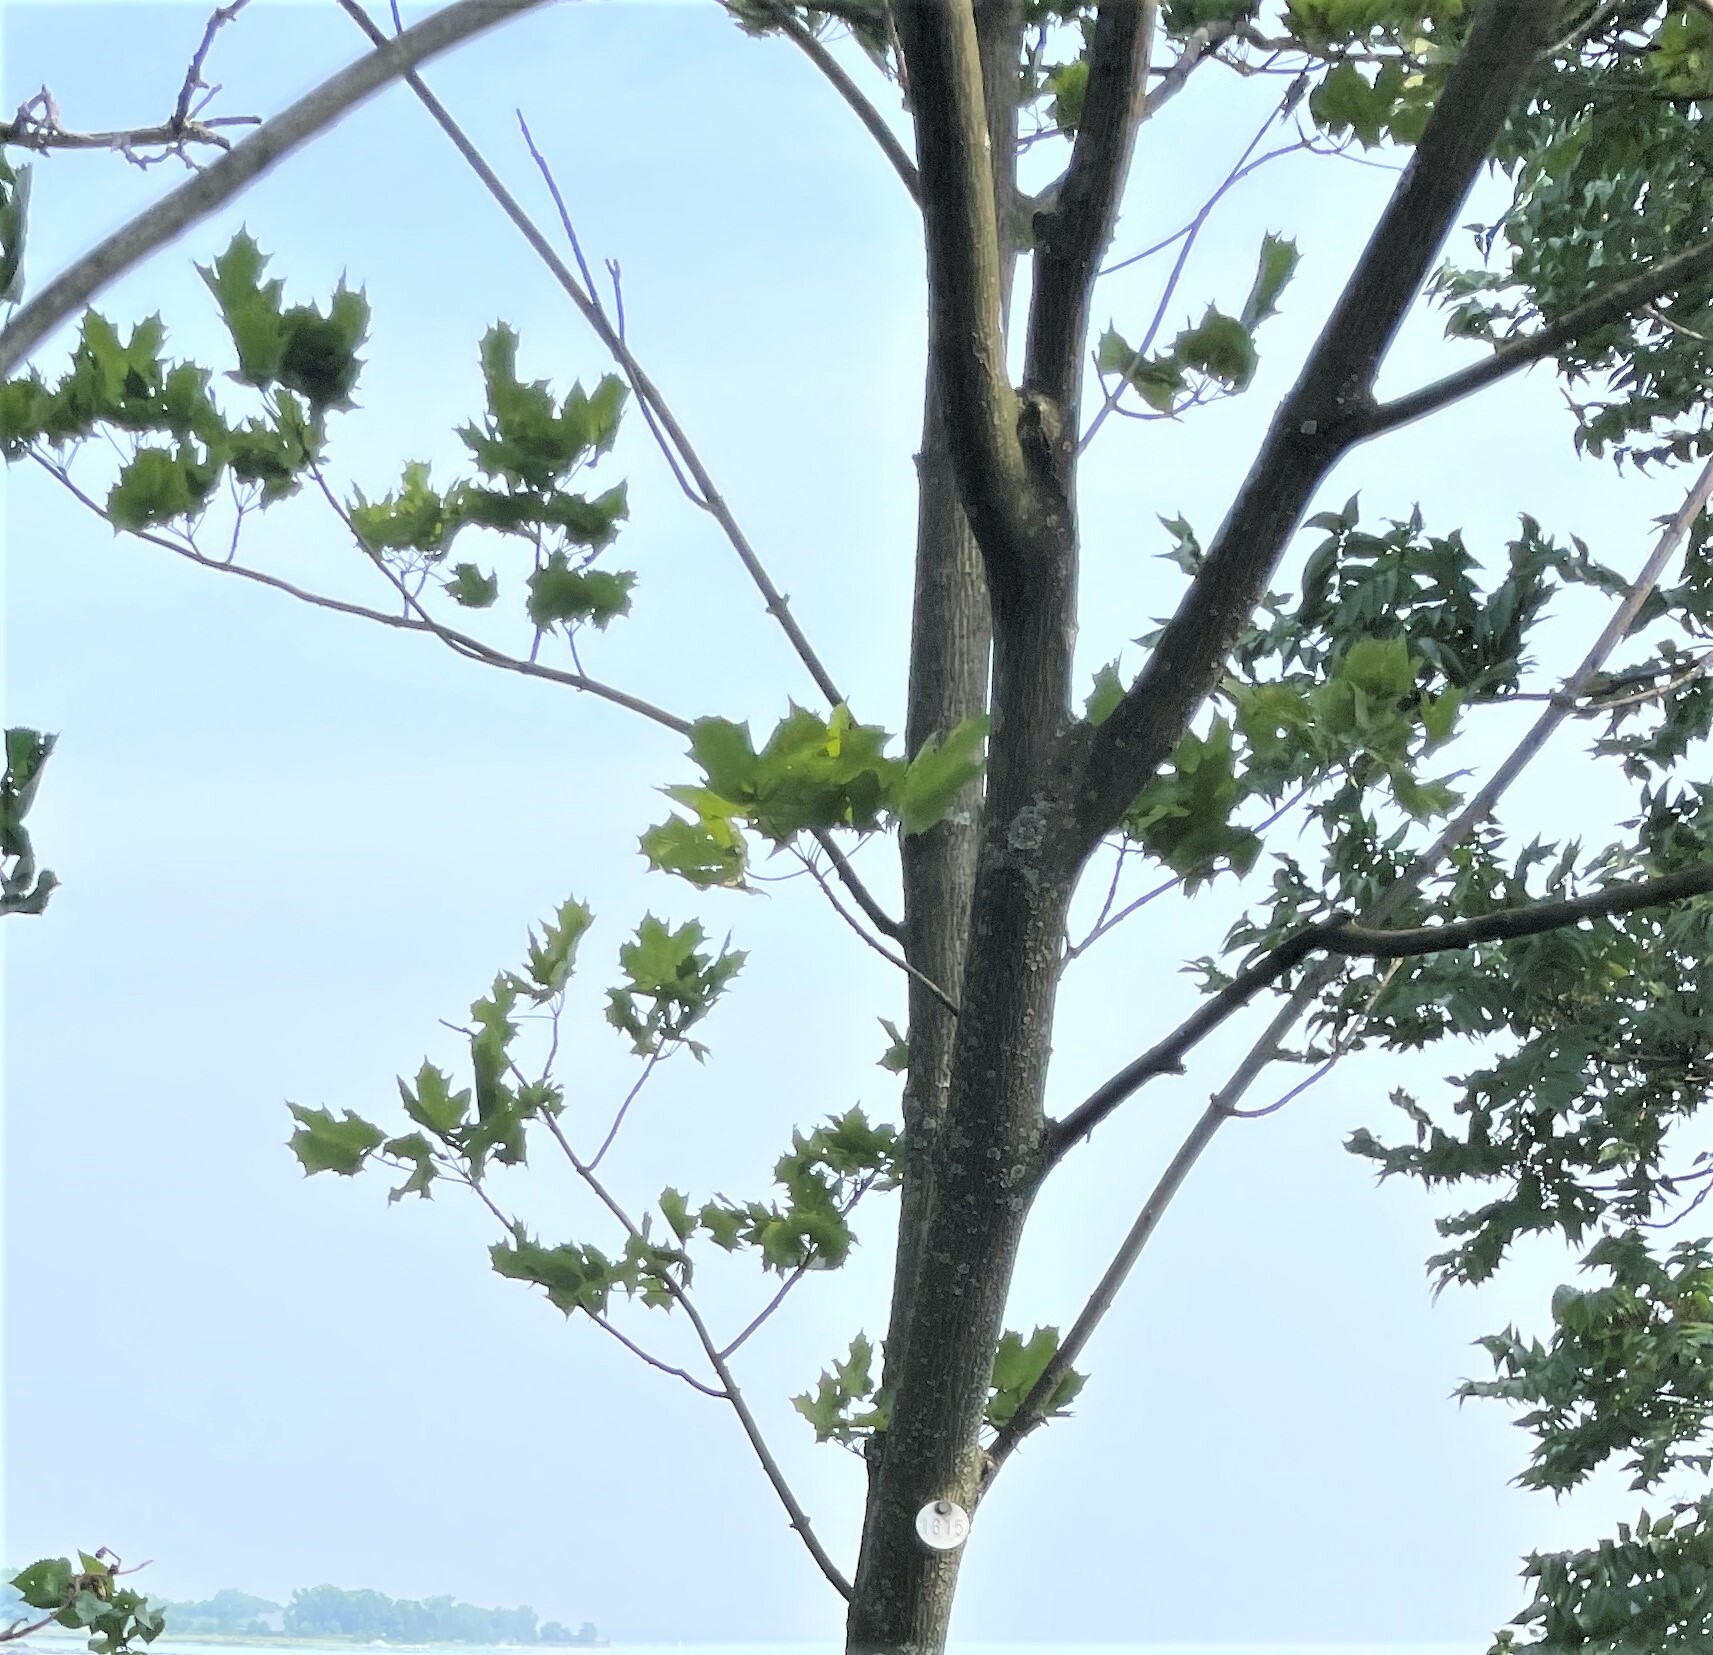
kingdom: Plantae
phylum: Tracheophyta
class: Magnoliopsida
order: Sapindales
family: Sapindaceae
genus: Acer
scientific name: Acer platanoides
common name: Norway maple
